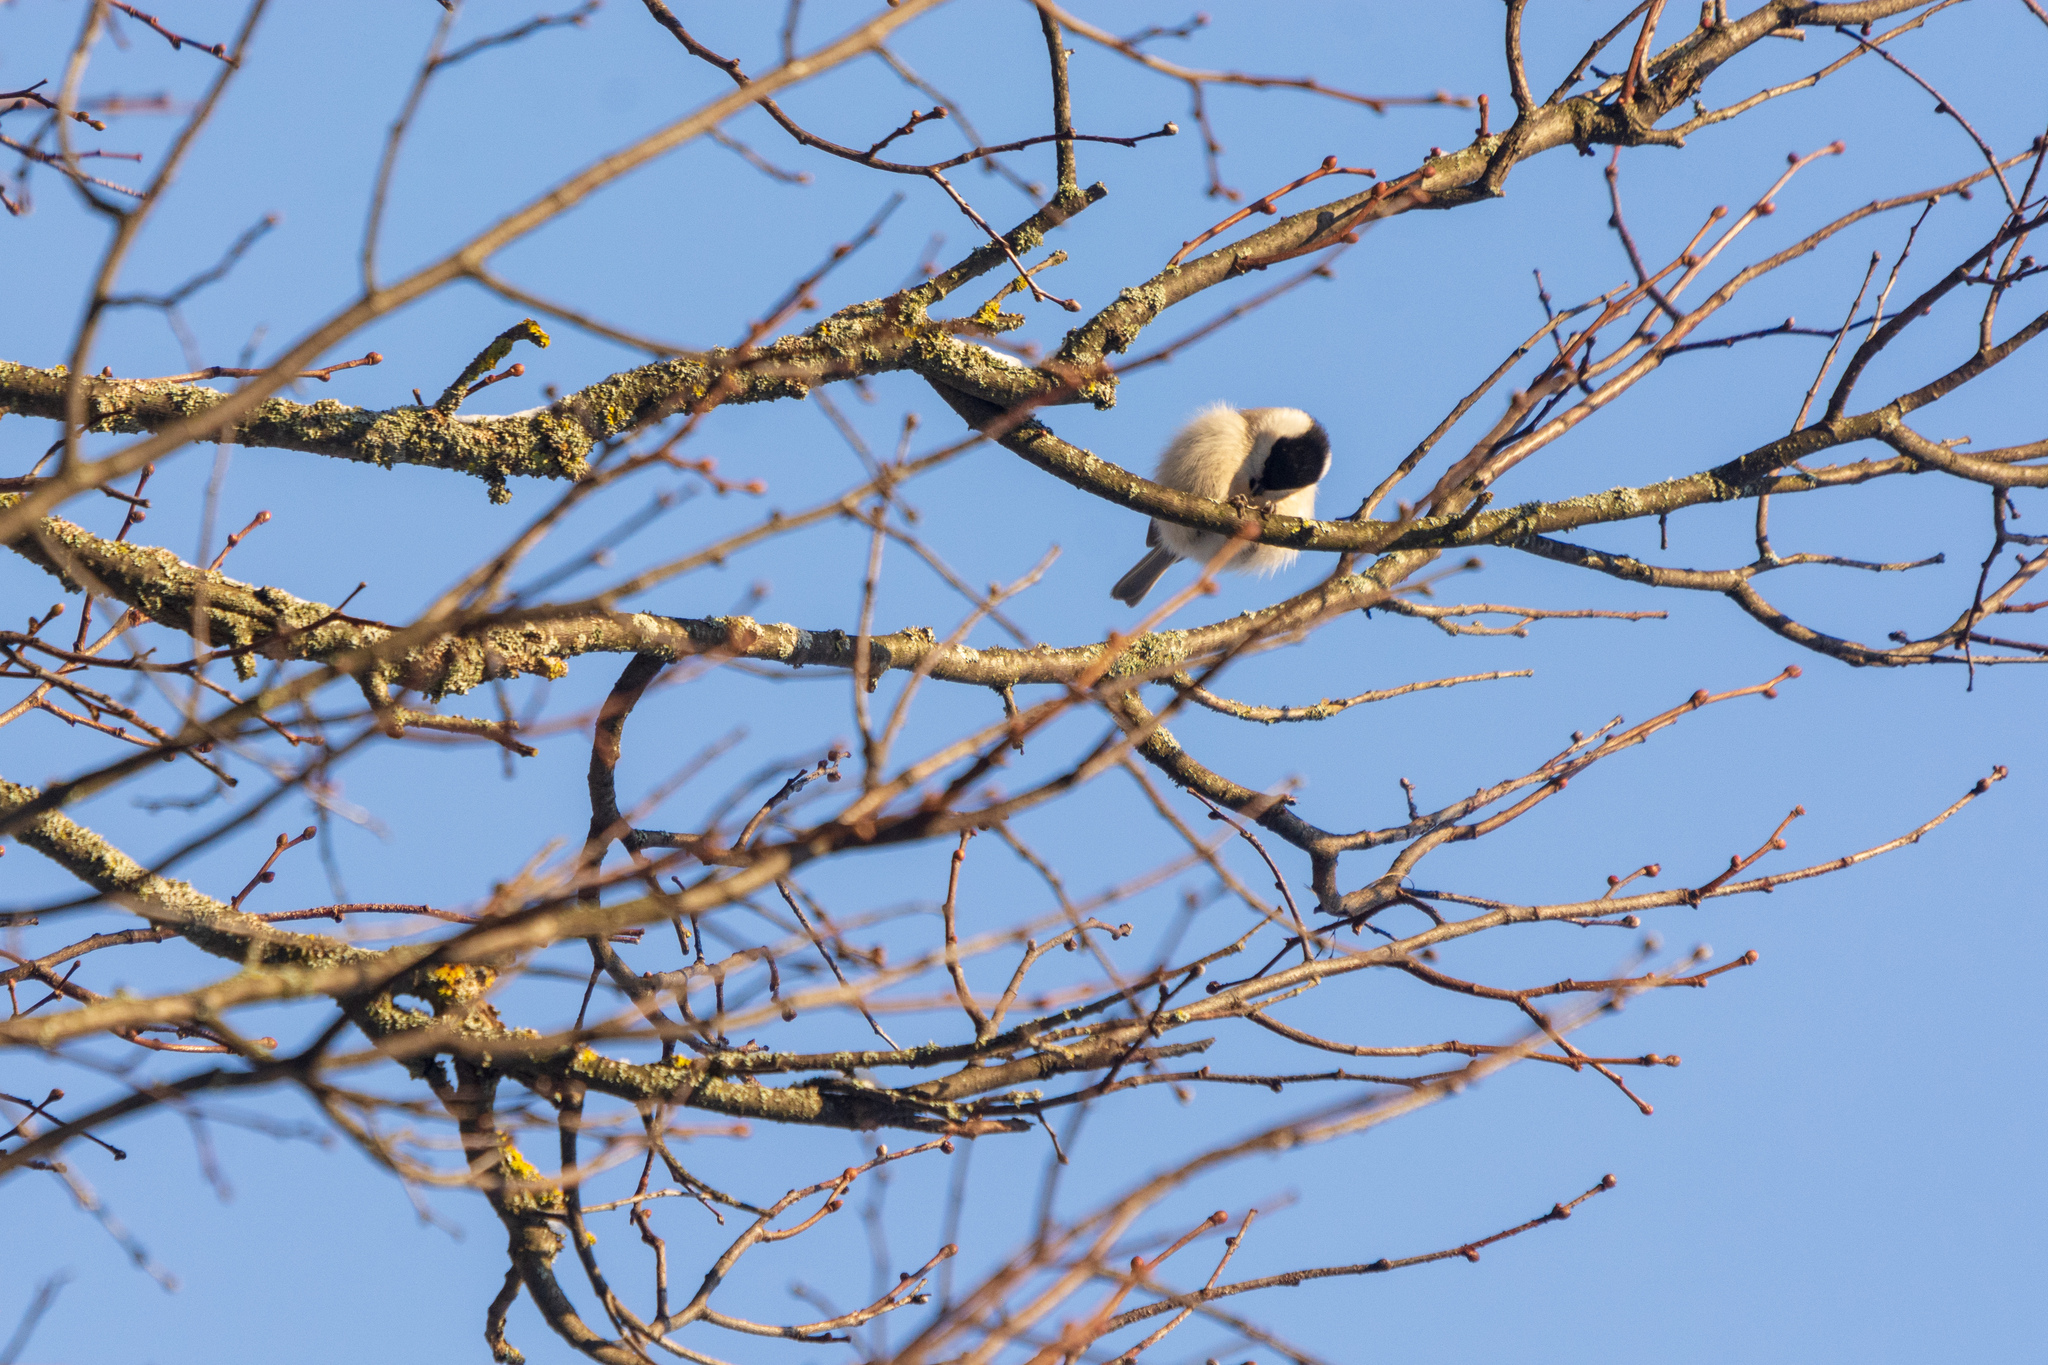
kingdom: Animalia
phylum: Chordata
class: Aves
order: Passeriformes
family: Paridae
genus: Poecile
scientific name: Poecile montanus
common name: Willow tit
